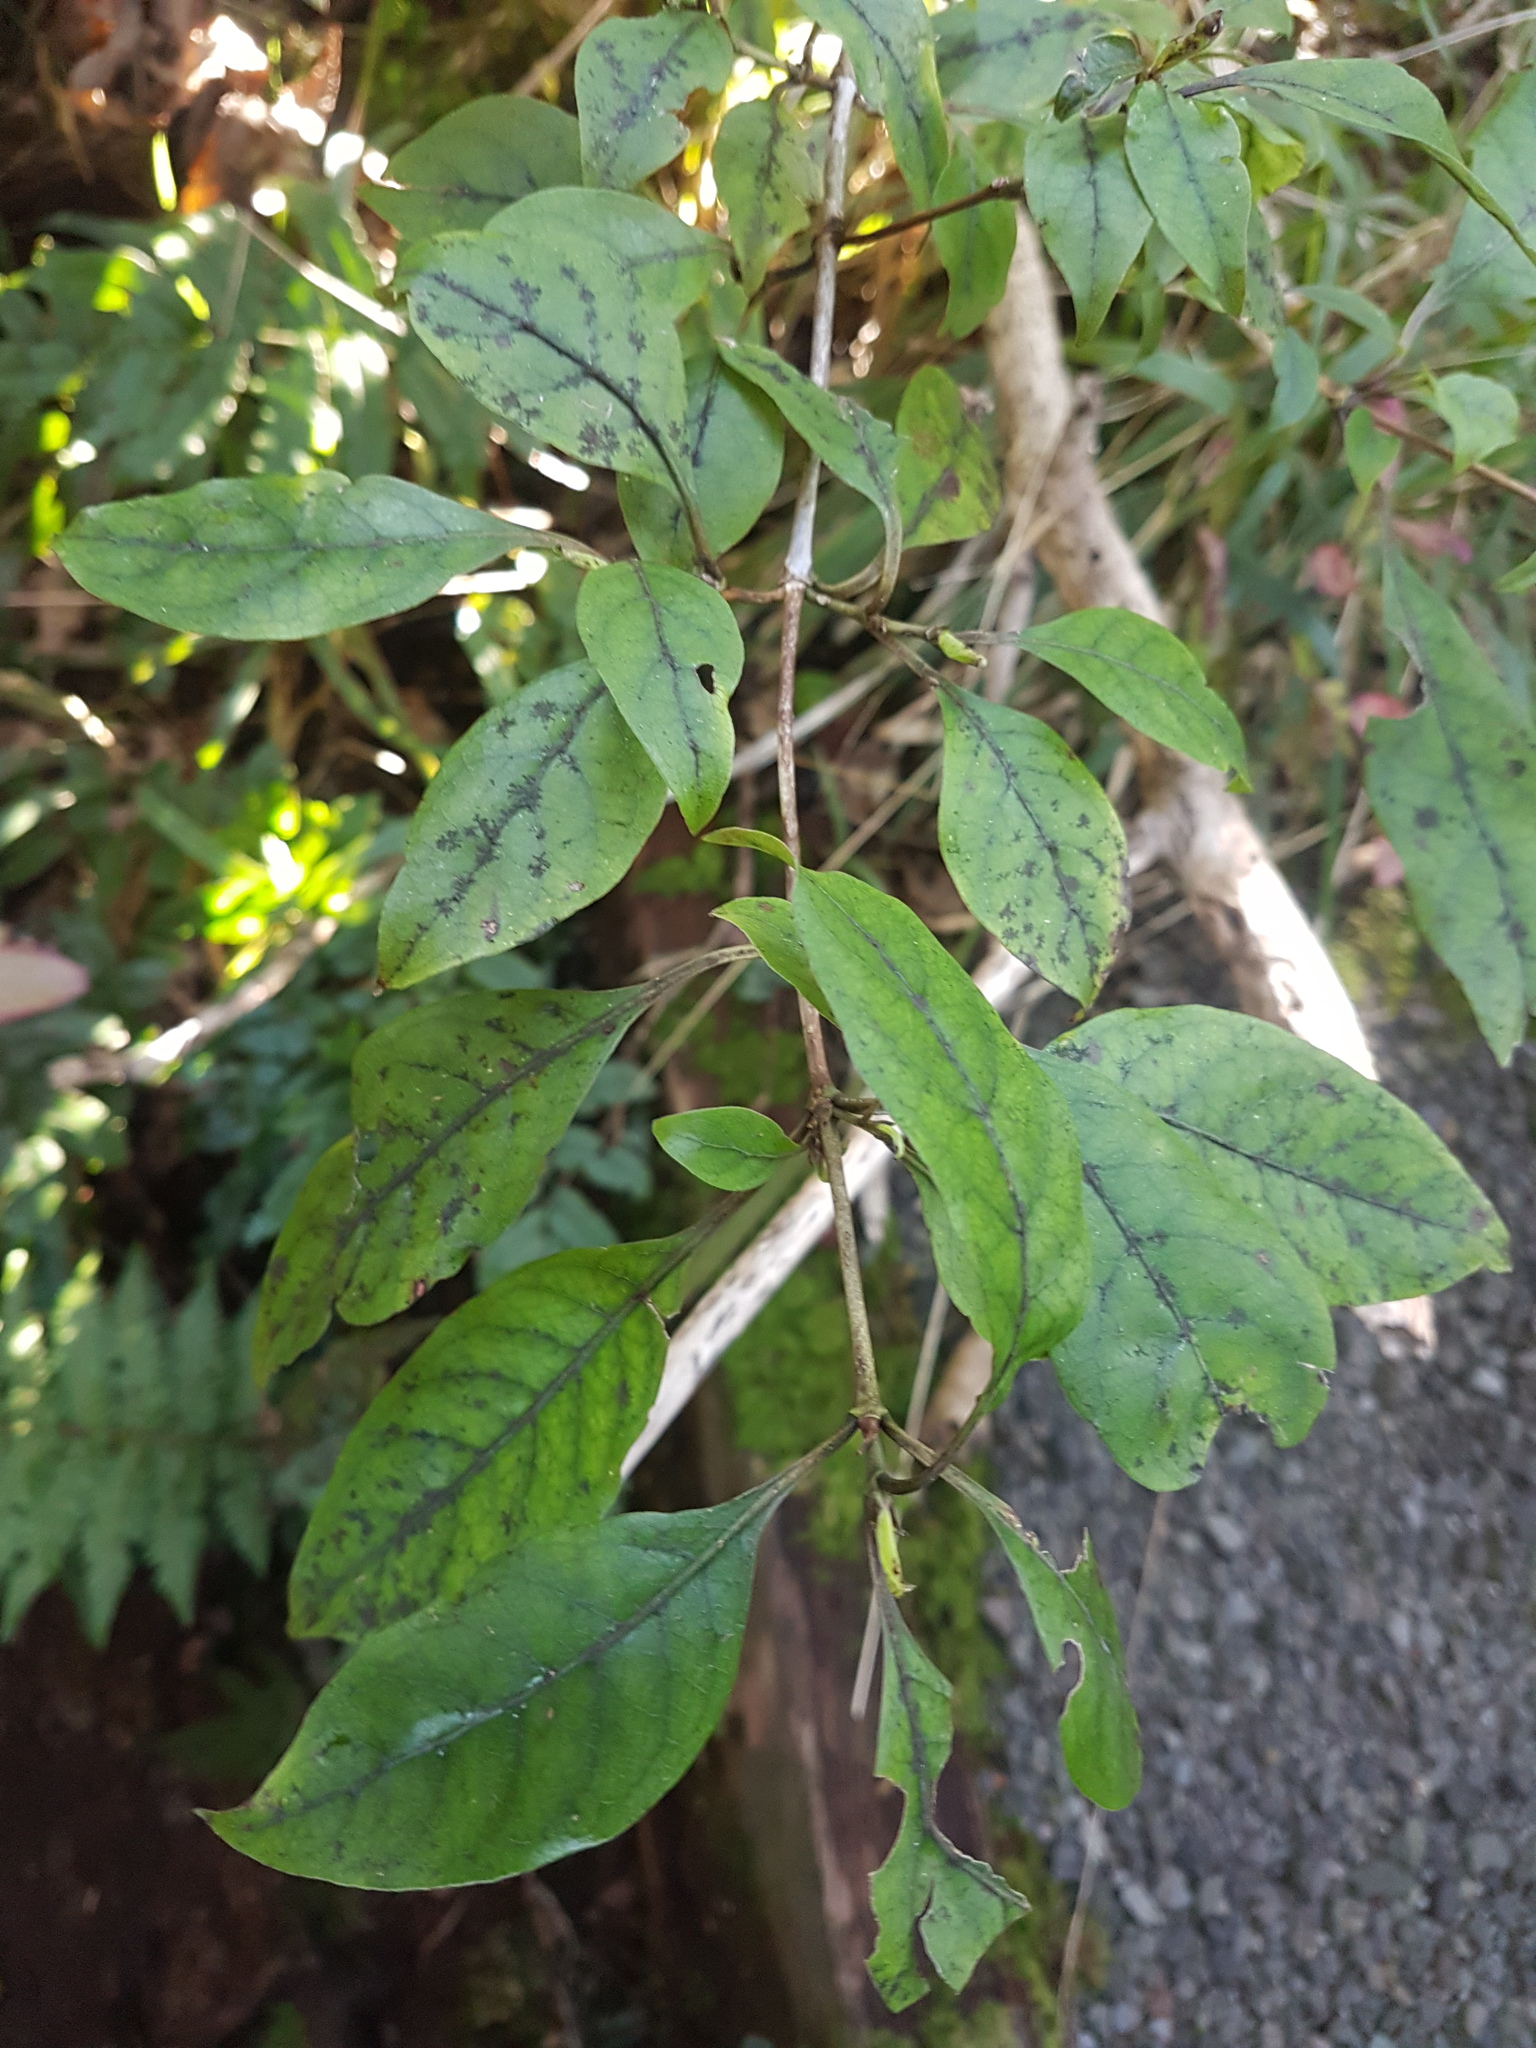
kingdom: Plantae
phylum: Tracheophyta
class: Magnoliopsida
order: Gentianales
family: Rubiaceae
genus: Coprosma
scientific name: Coprosma tenuifolia
